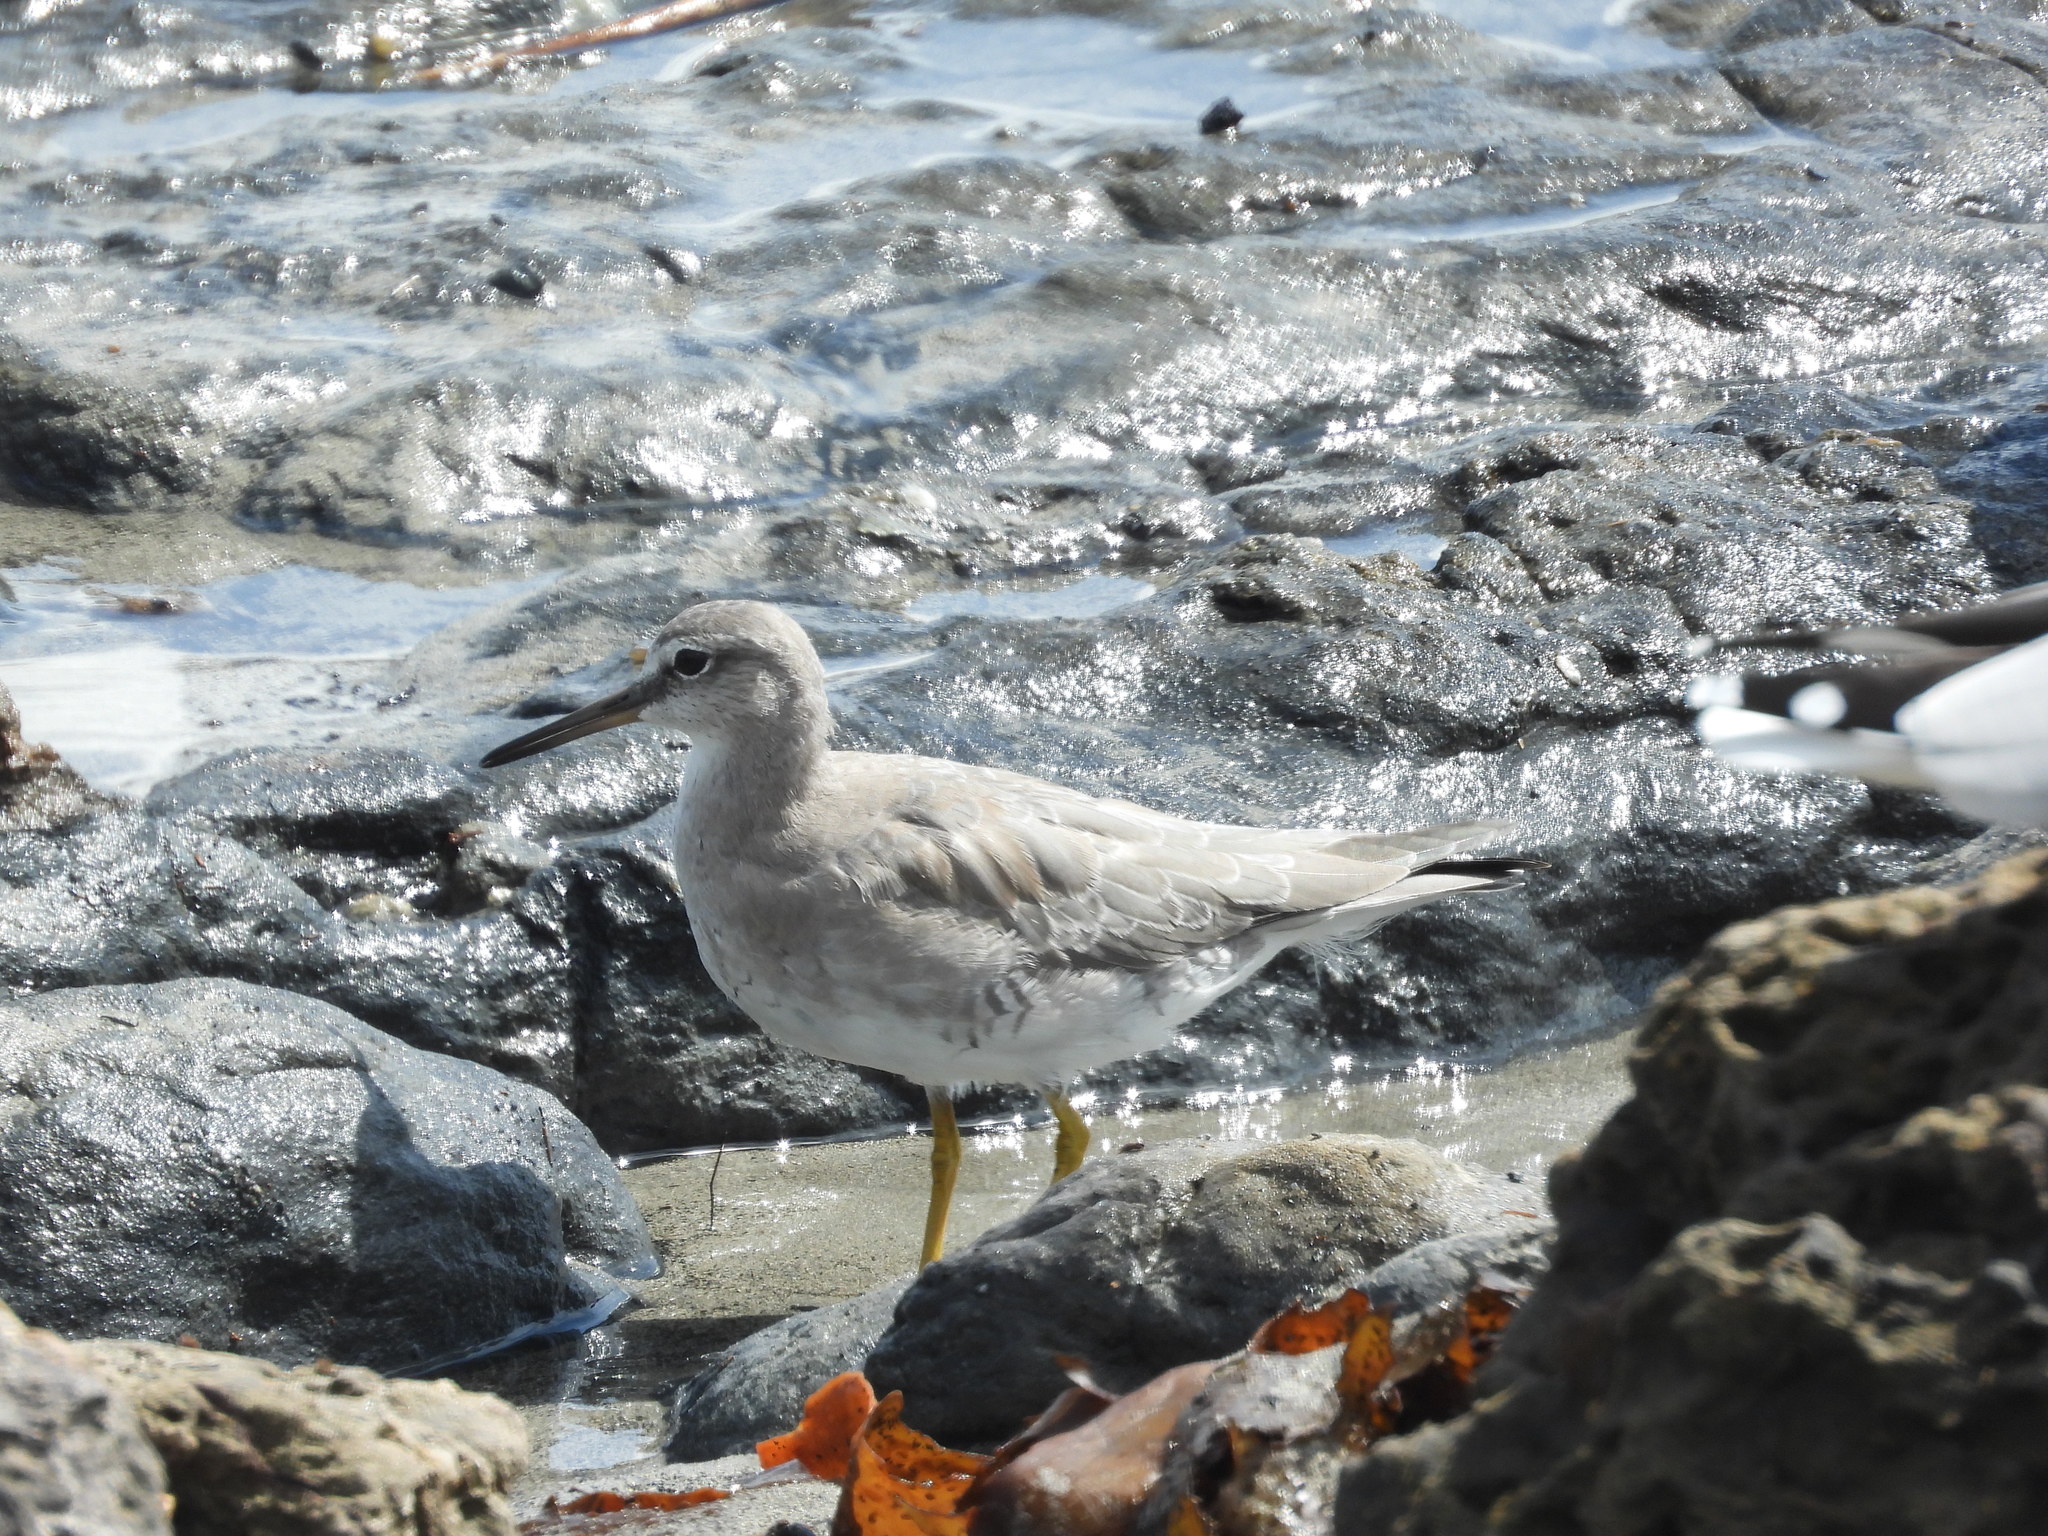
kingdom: Animalia
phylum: Chordata
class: Aves
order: Charadriiformes
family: Scolopacidae
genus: Tringa
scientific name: Tringa brevipes
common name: Grey-tailed tattler
